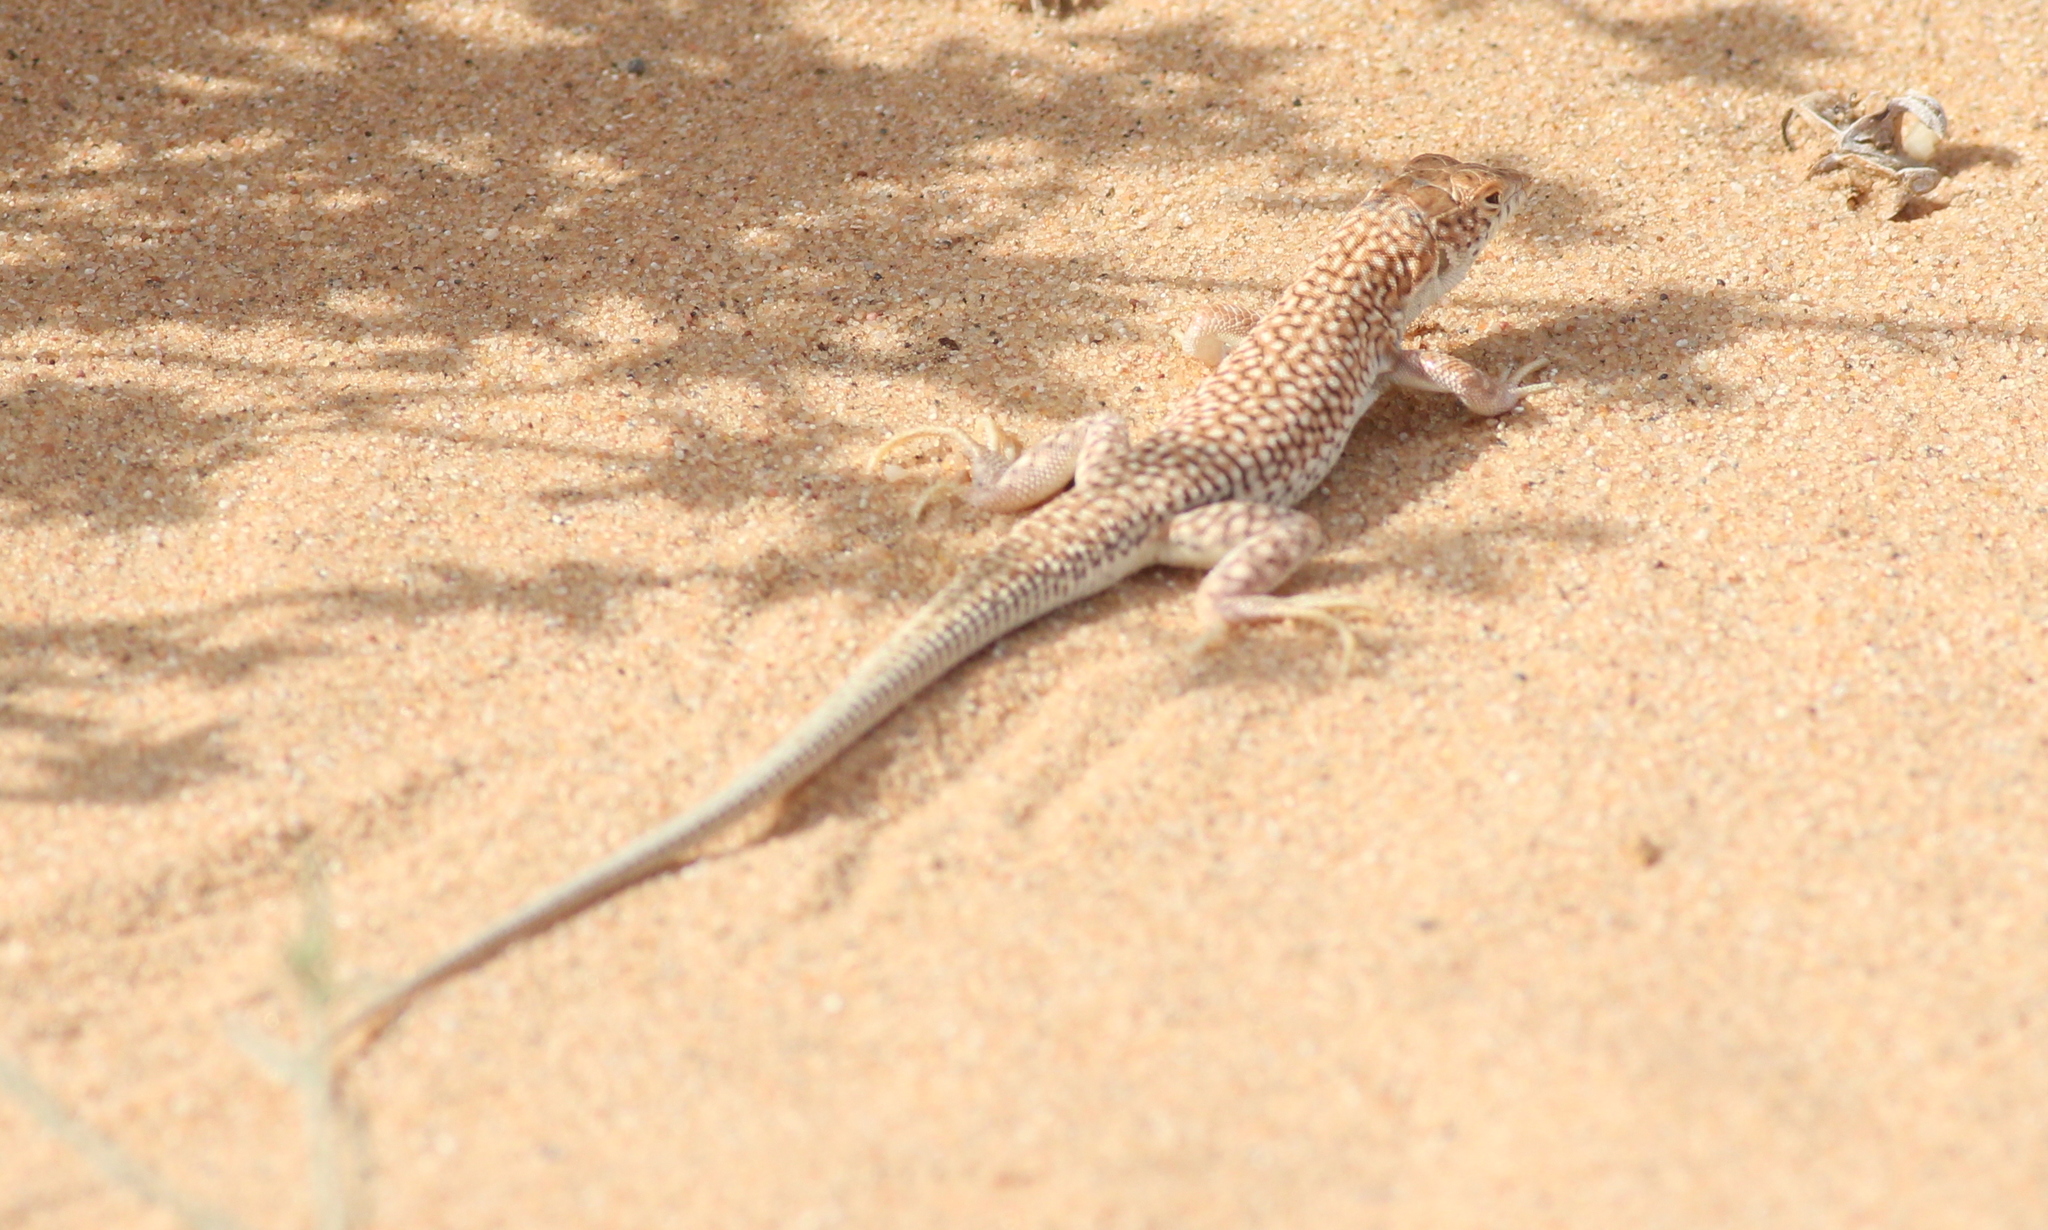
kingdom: Animalia
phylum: Chordata
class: Squamata
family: Lacertidae
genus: Acanthodactylus
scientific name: Acanthodactylus dumerilii
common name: Duméril's fringe-fingered lizard
